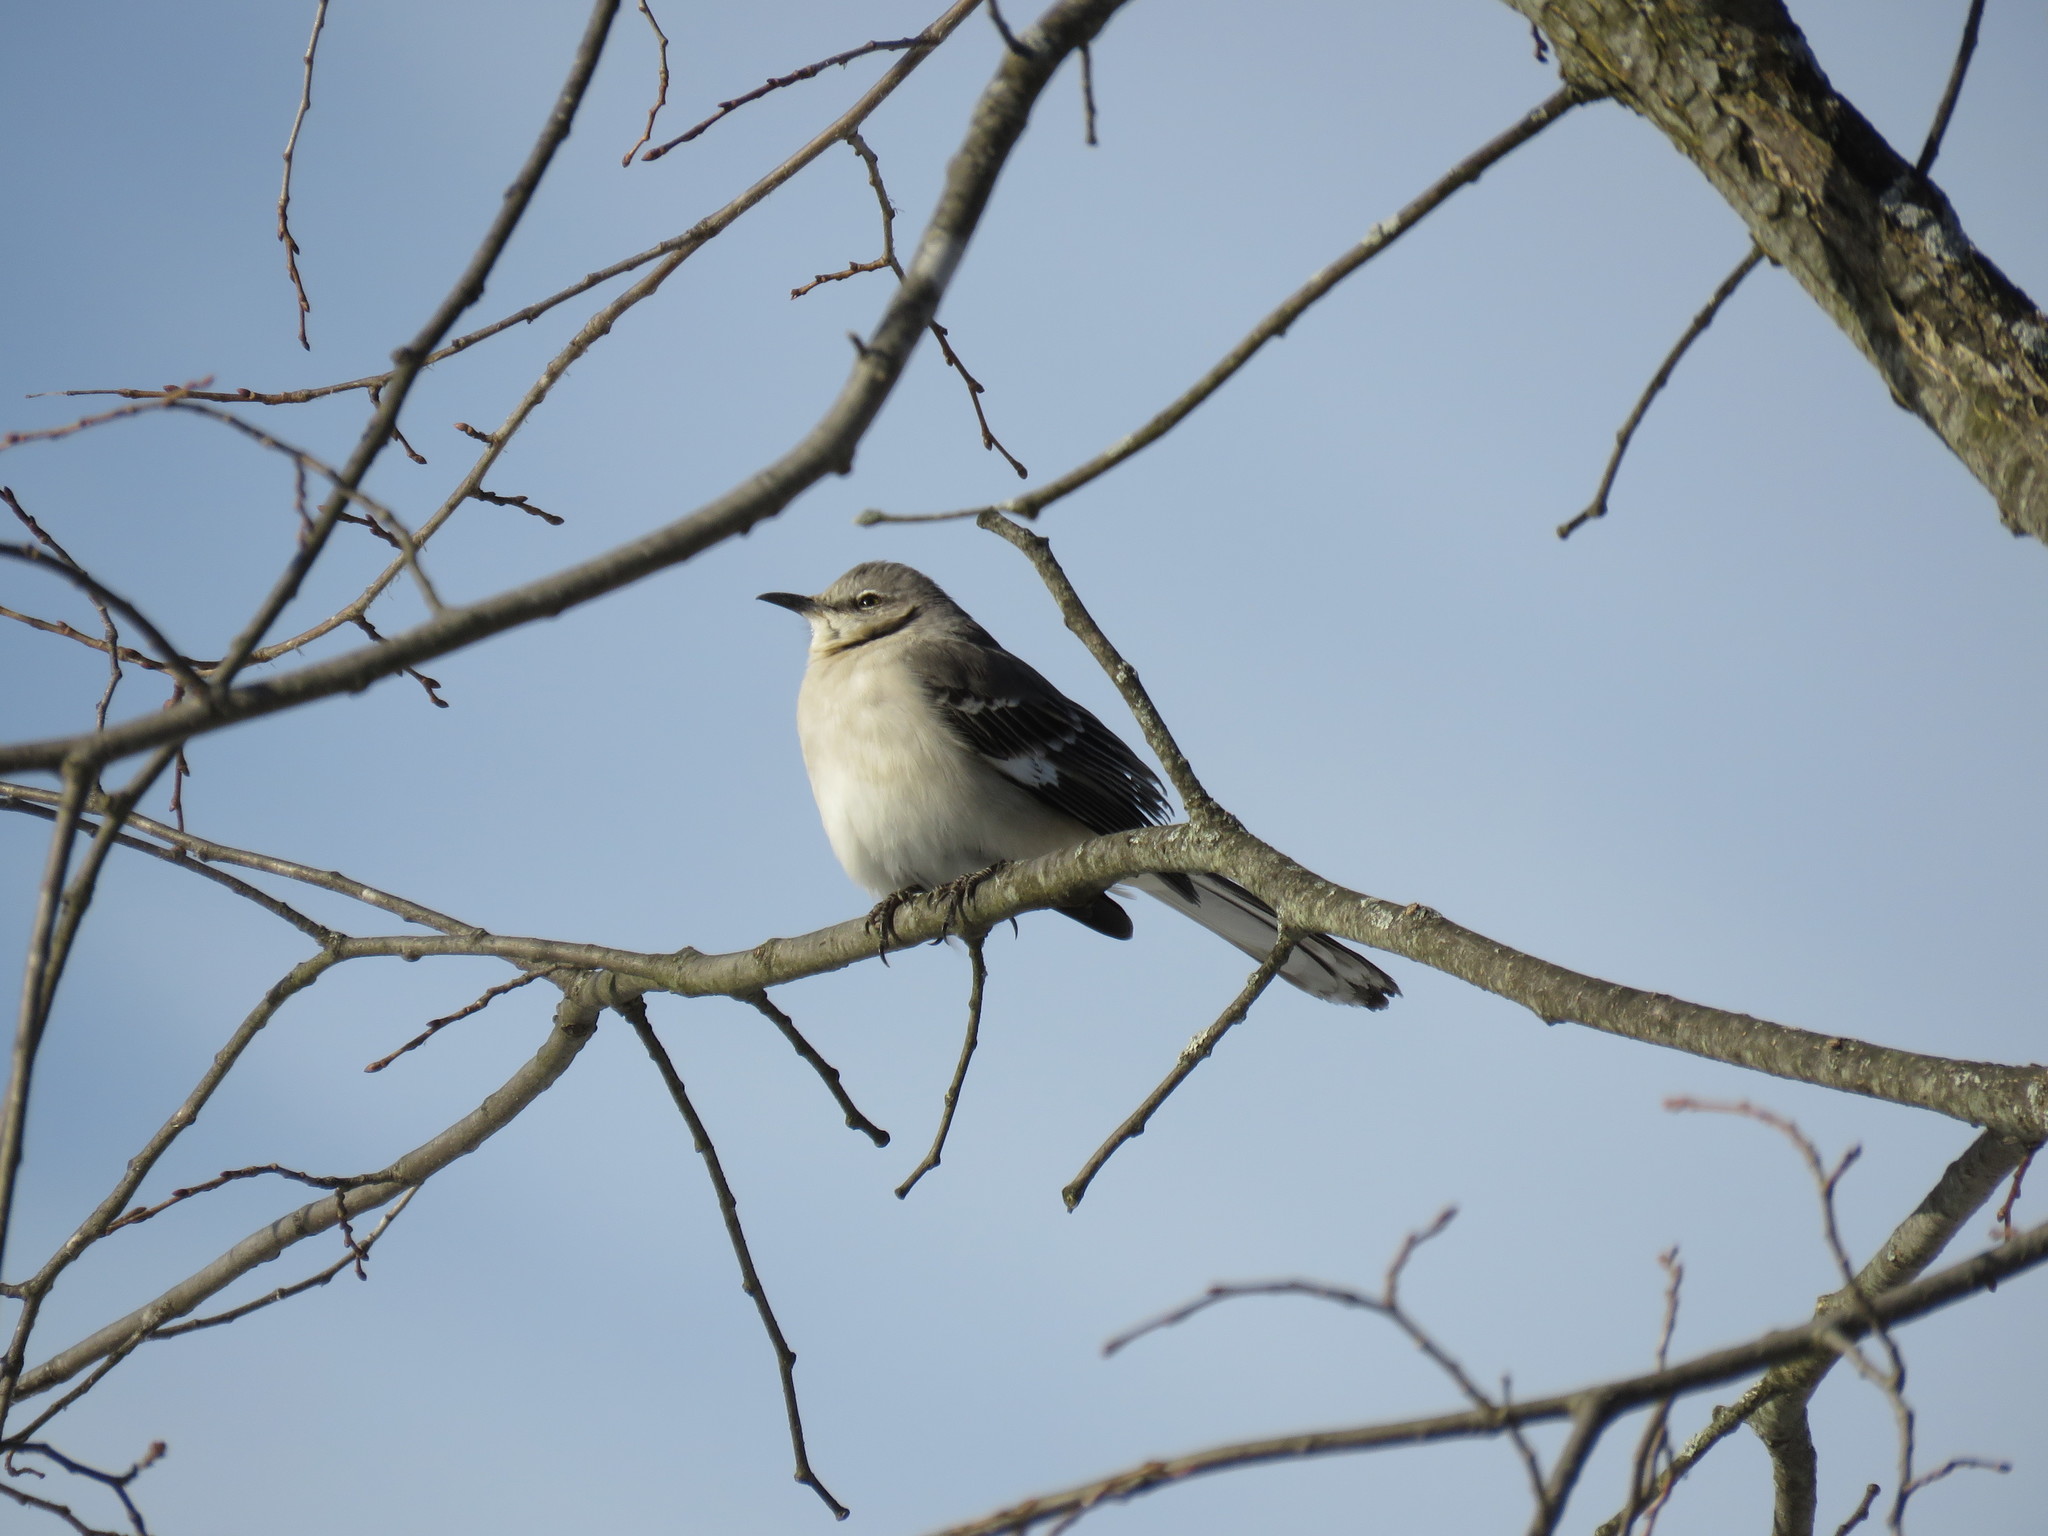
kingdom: Animalia
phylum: Chordata
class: Aves
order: Passeriformes
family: Mimidae
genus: Mimus
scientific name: Mimus polyglottos
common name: Northern mockingbird
